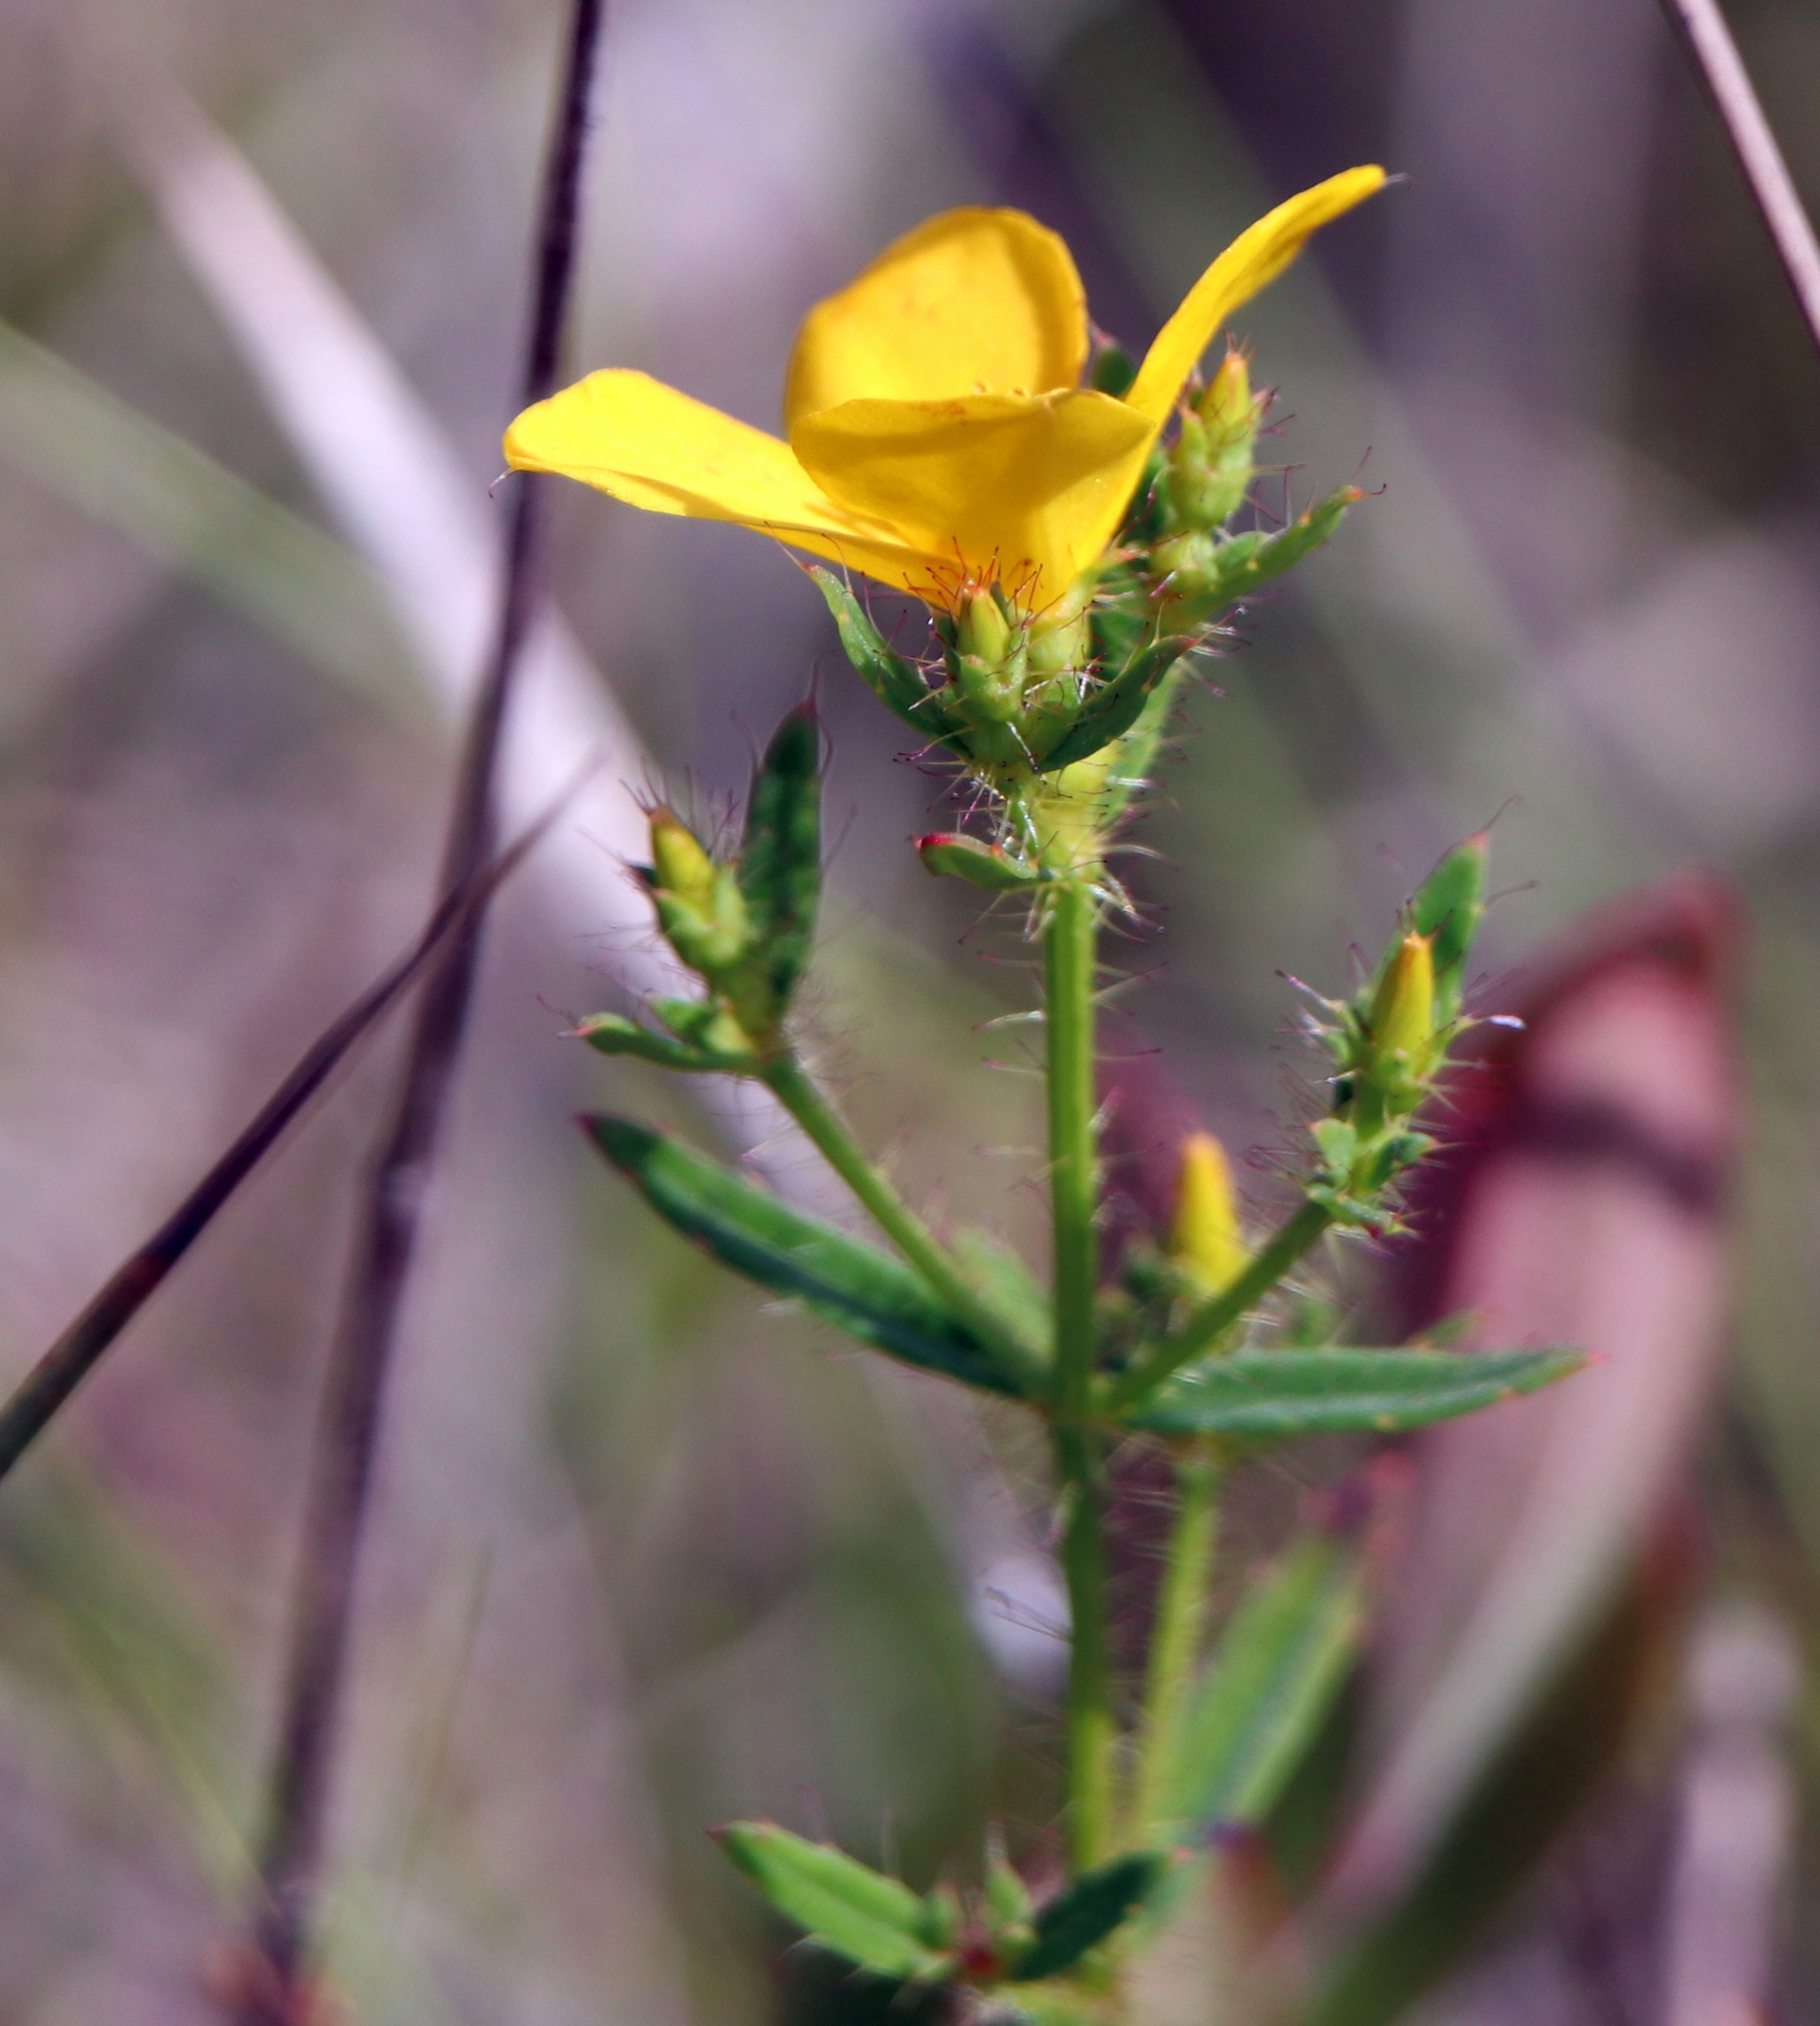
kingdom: Plantae
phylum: Tracheophyta
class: Magnoliopsida
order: Myrtales
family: Melastomataceae
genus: Rhexia
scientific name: Rhexia lutea
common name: Golden meadow-beauty
